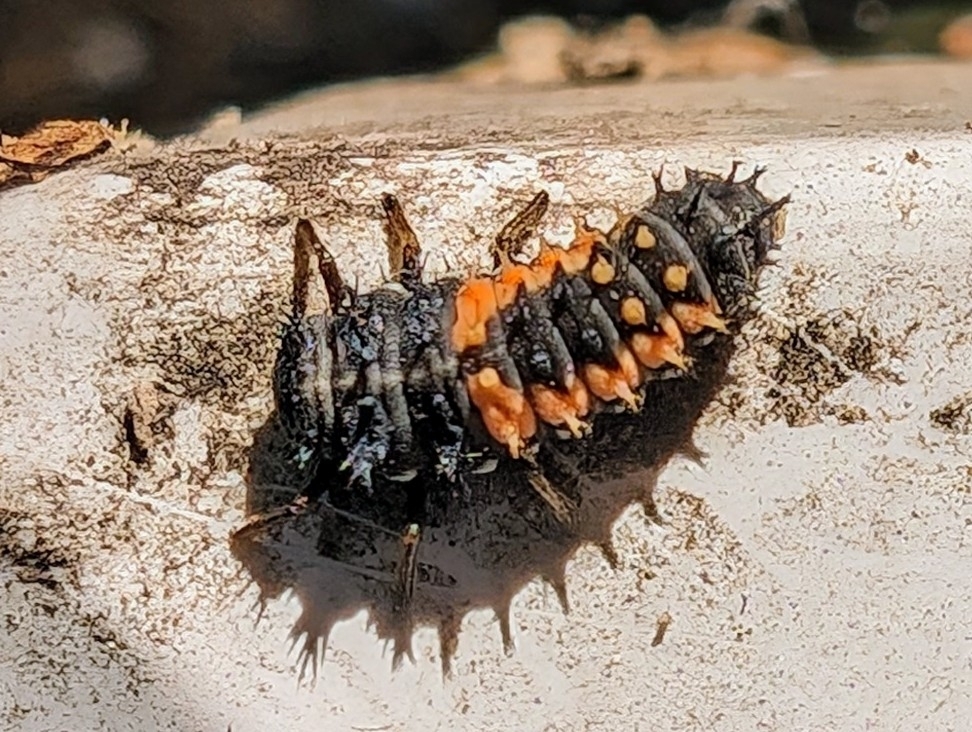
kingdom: Animalia
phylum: Arthropoda
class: Insecta
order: Coleoptera
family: Coccinellidae
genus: Harmonia
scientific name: Harmonia axyridis
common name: Harlequin ladybird
